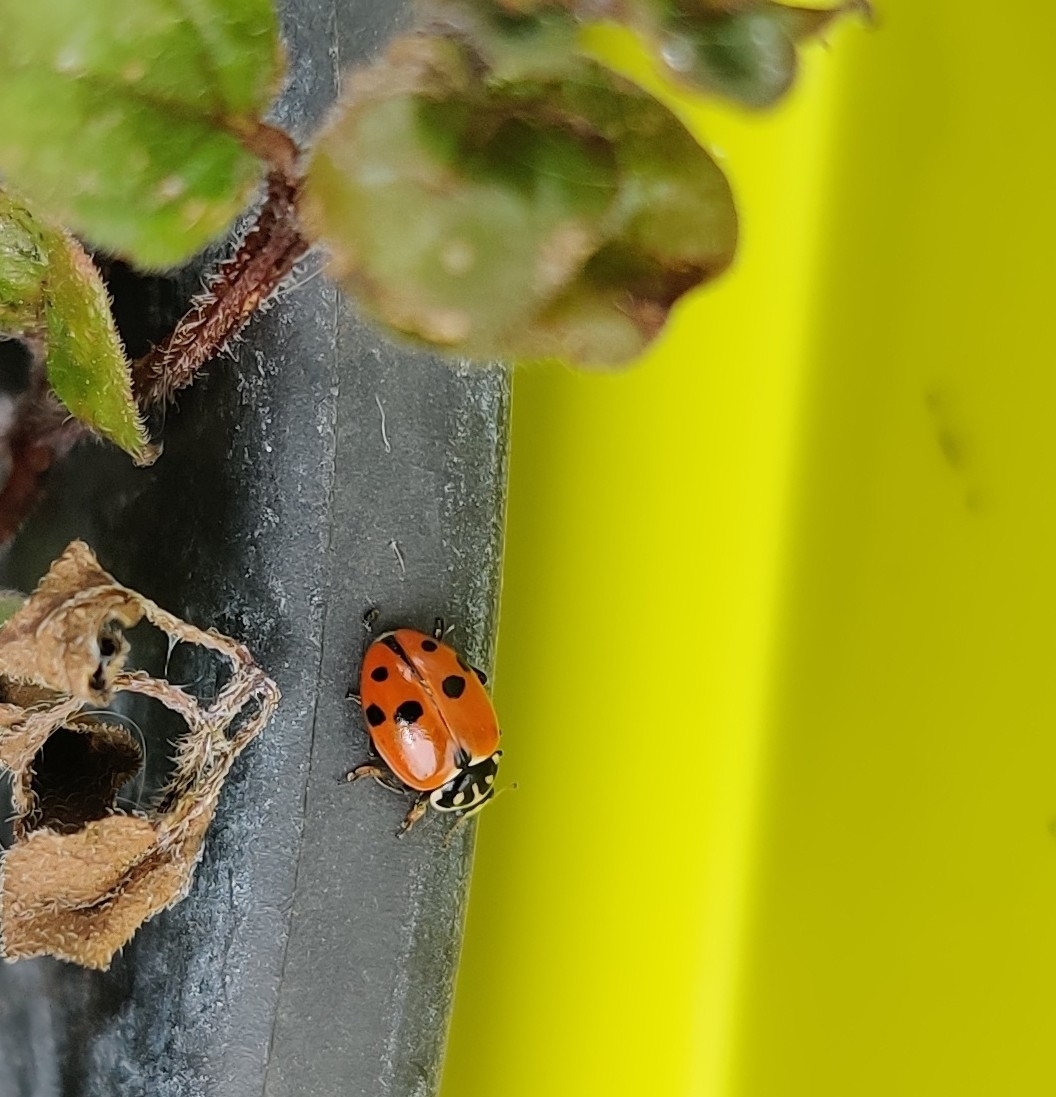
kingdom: Animalia
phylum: Arthropoda
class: Insecta
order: Coleoptera
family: Coccinellidae
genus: Hippodamia
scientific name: Hippodamia variegata
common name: Ladybird beetle
